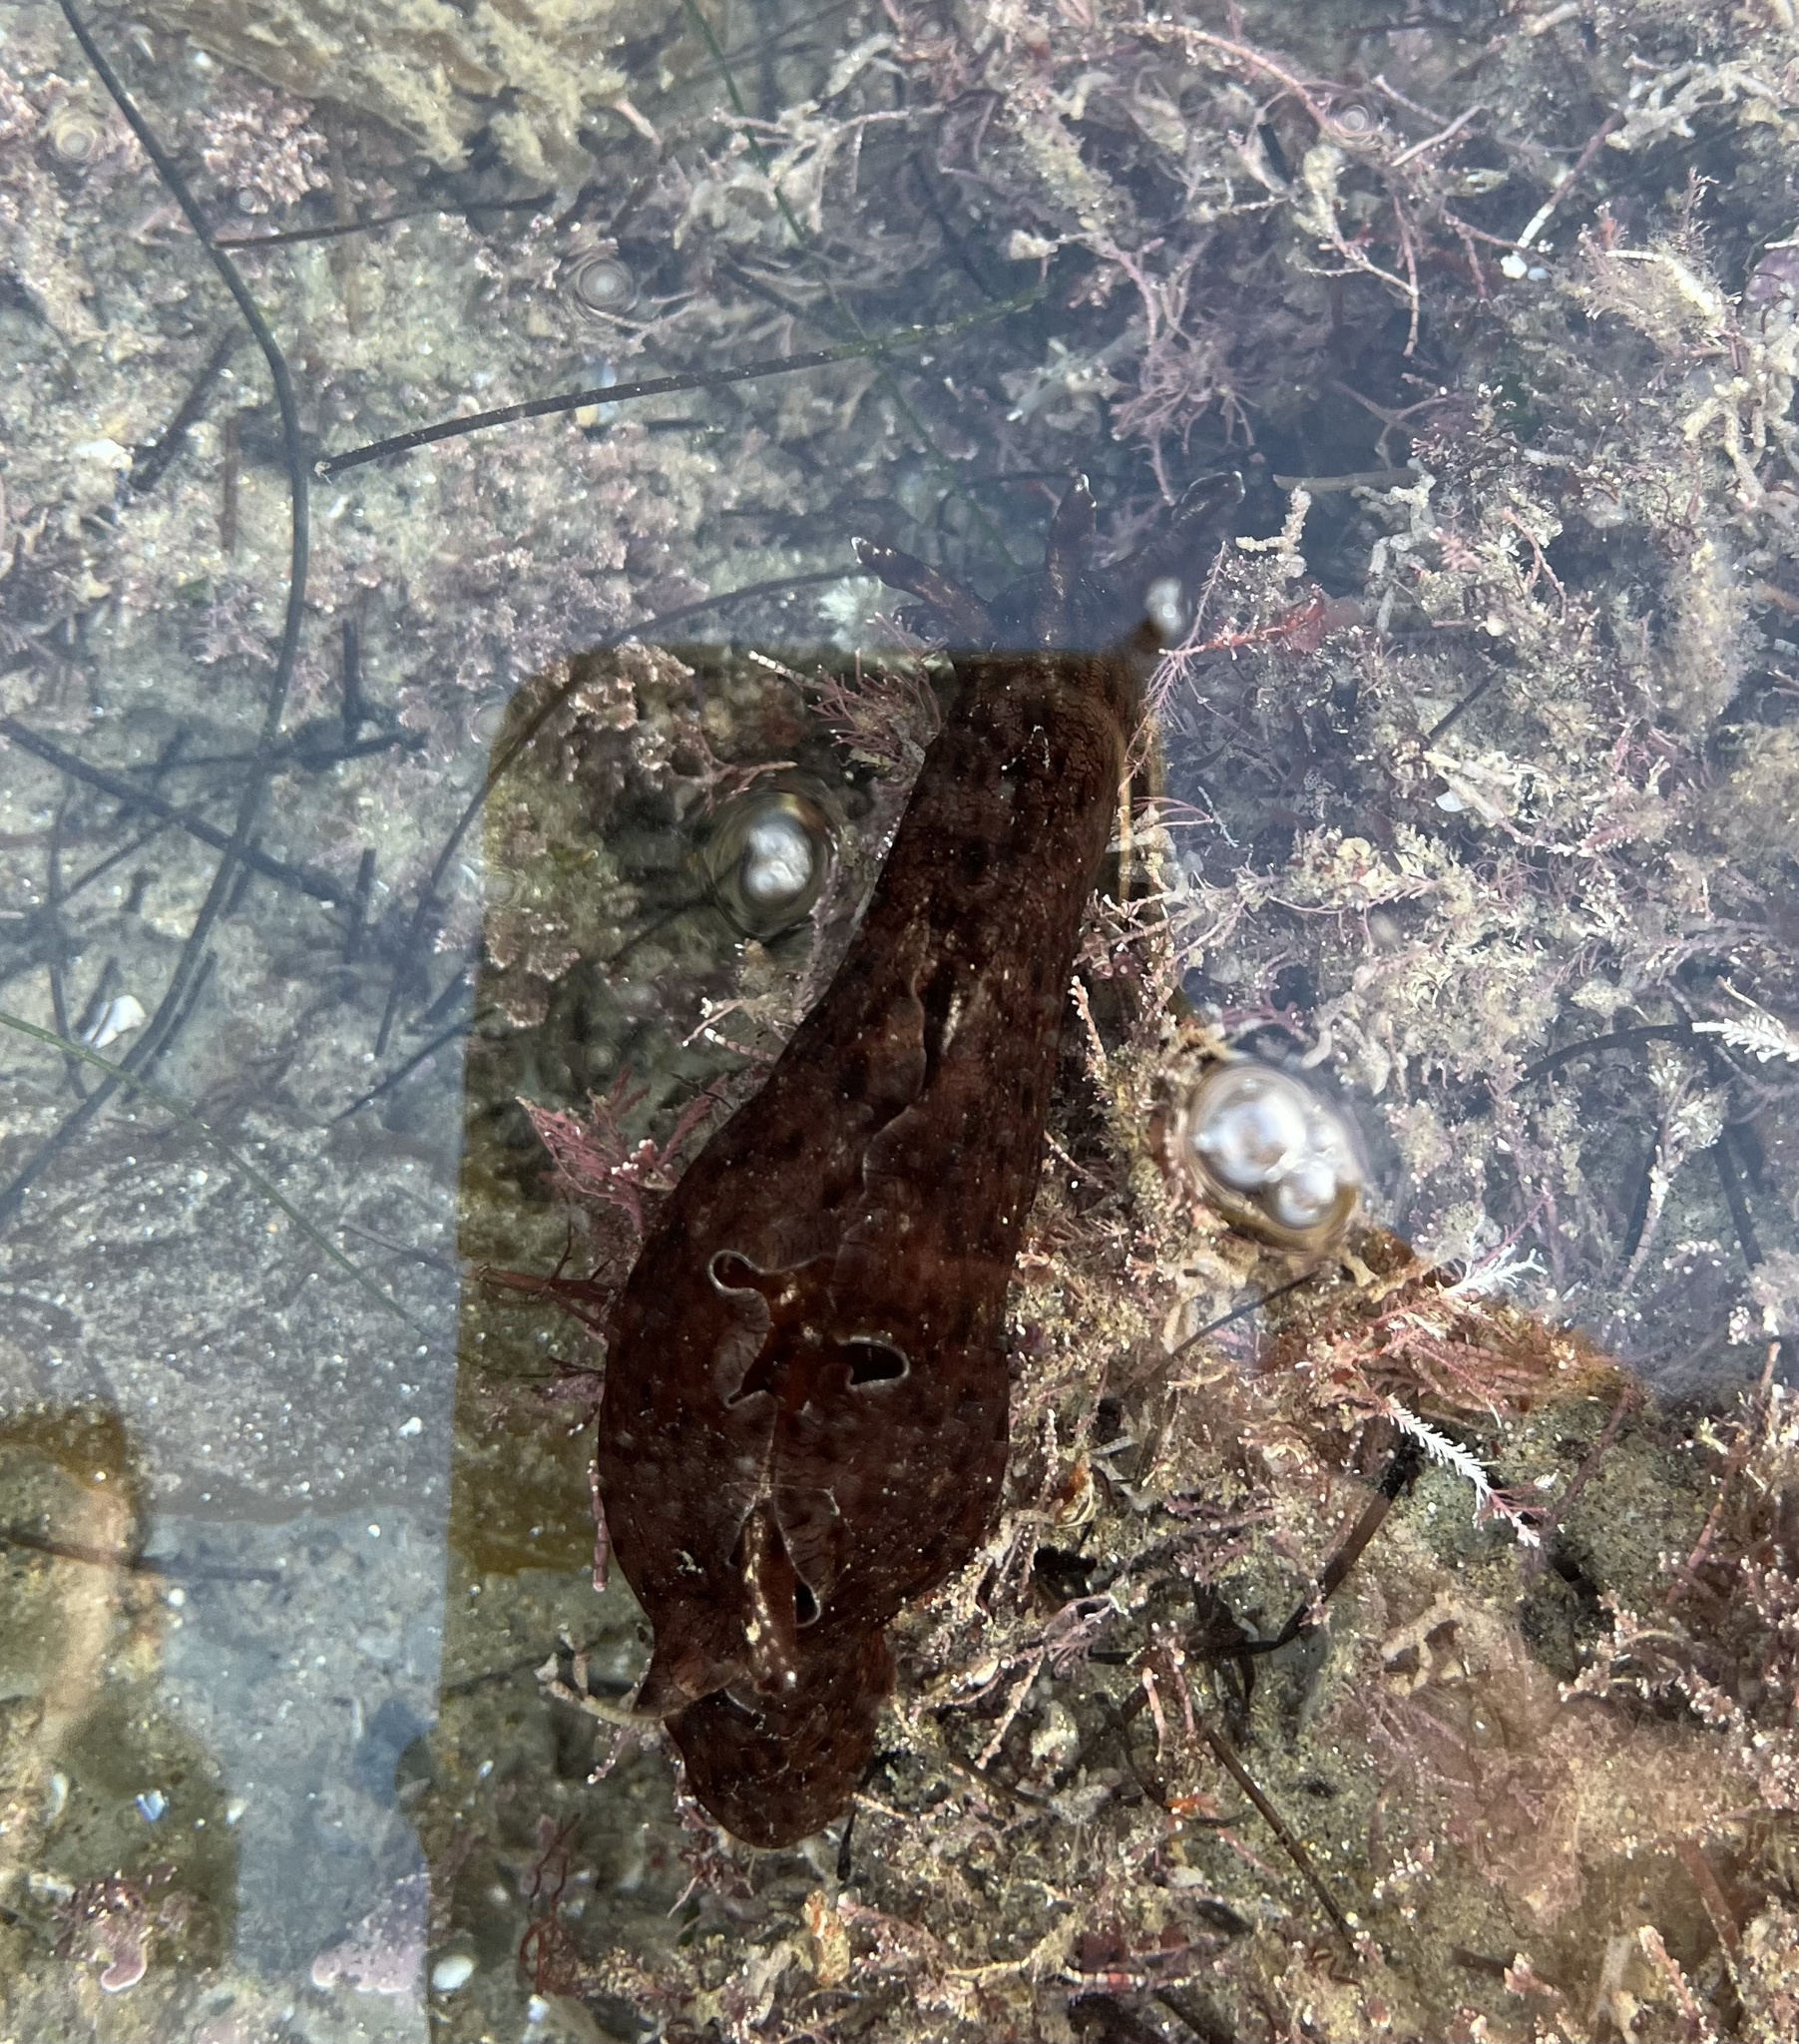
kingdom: Animalia
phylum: Mollusca
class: Gastropoda
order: Aplysiida
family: Aplysiidae
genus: Aplysia
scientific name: Aplysia californica
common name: California seahare
